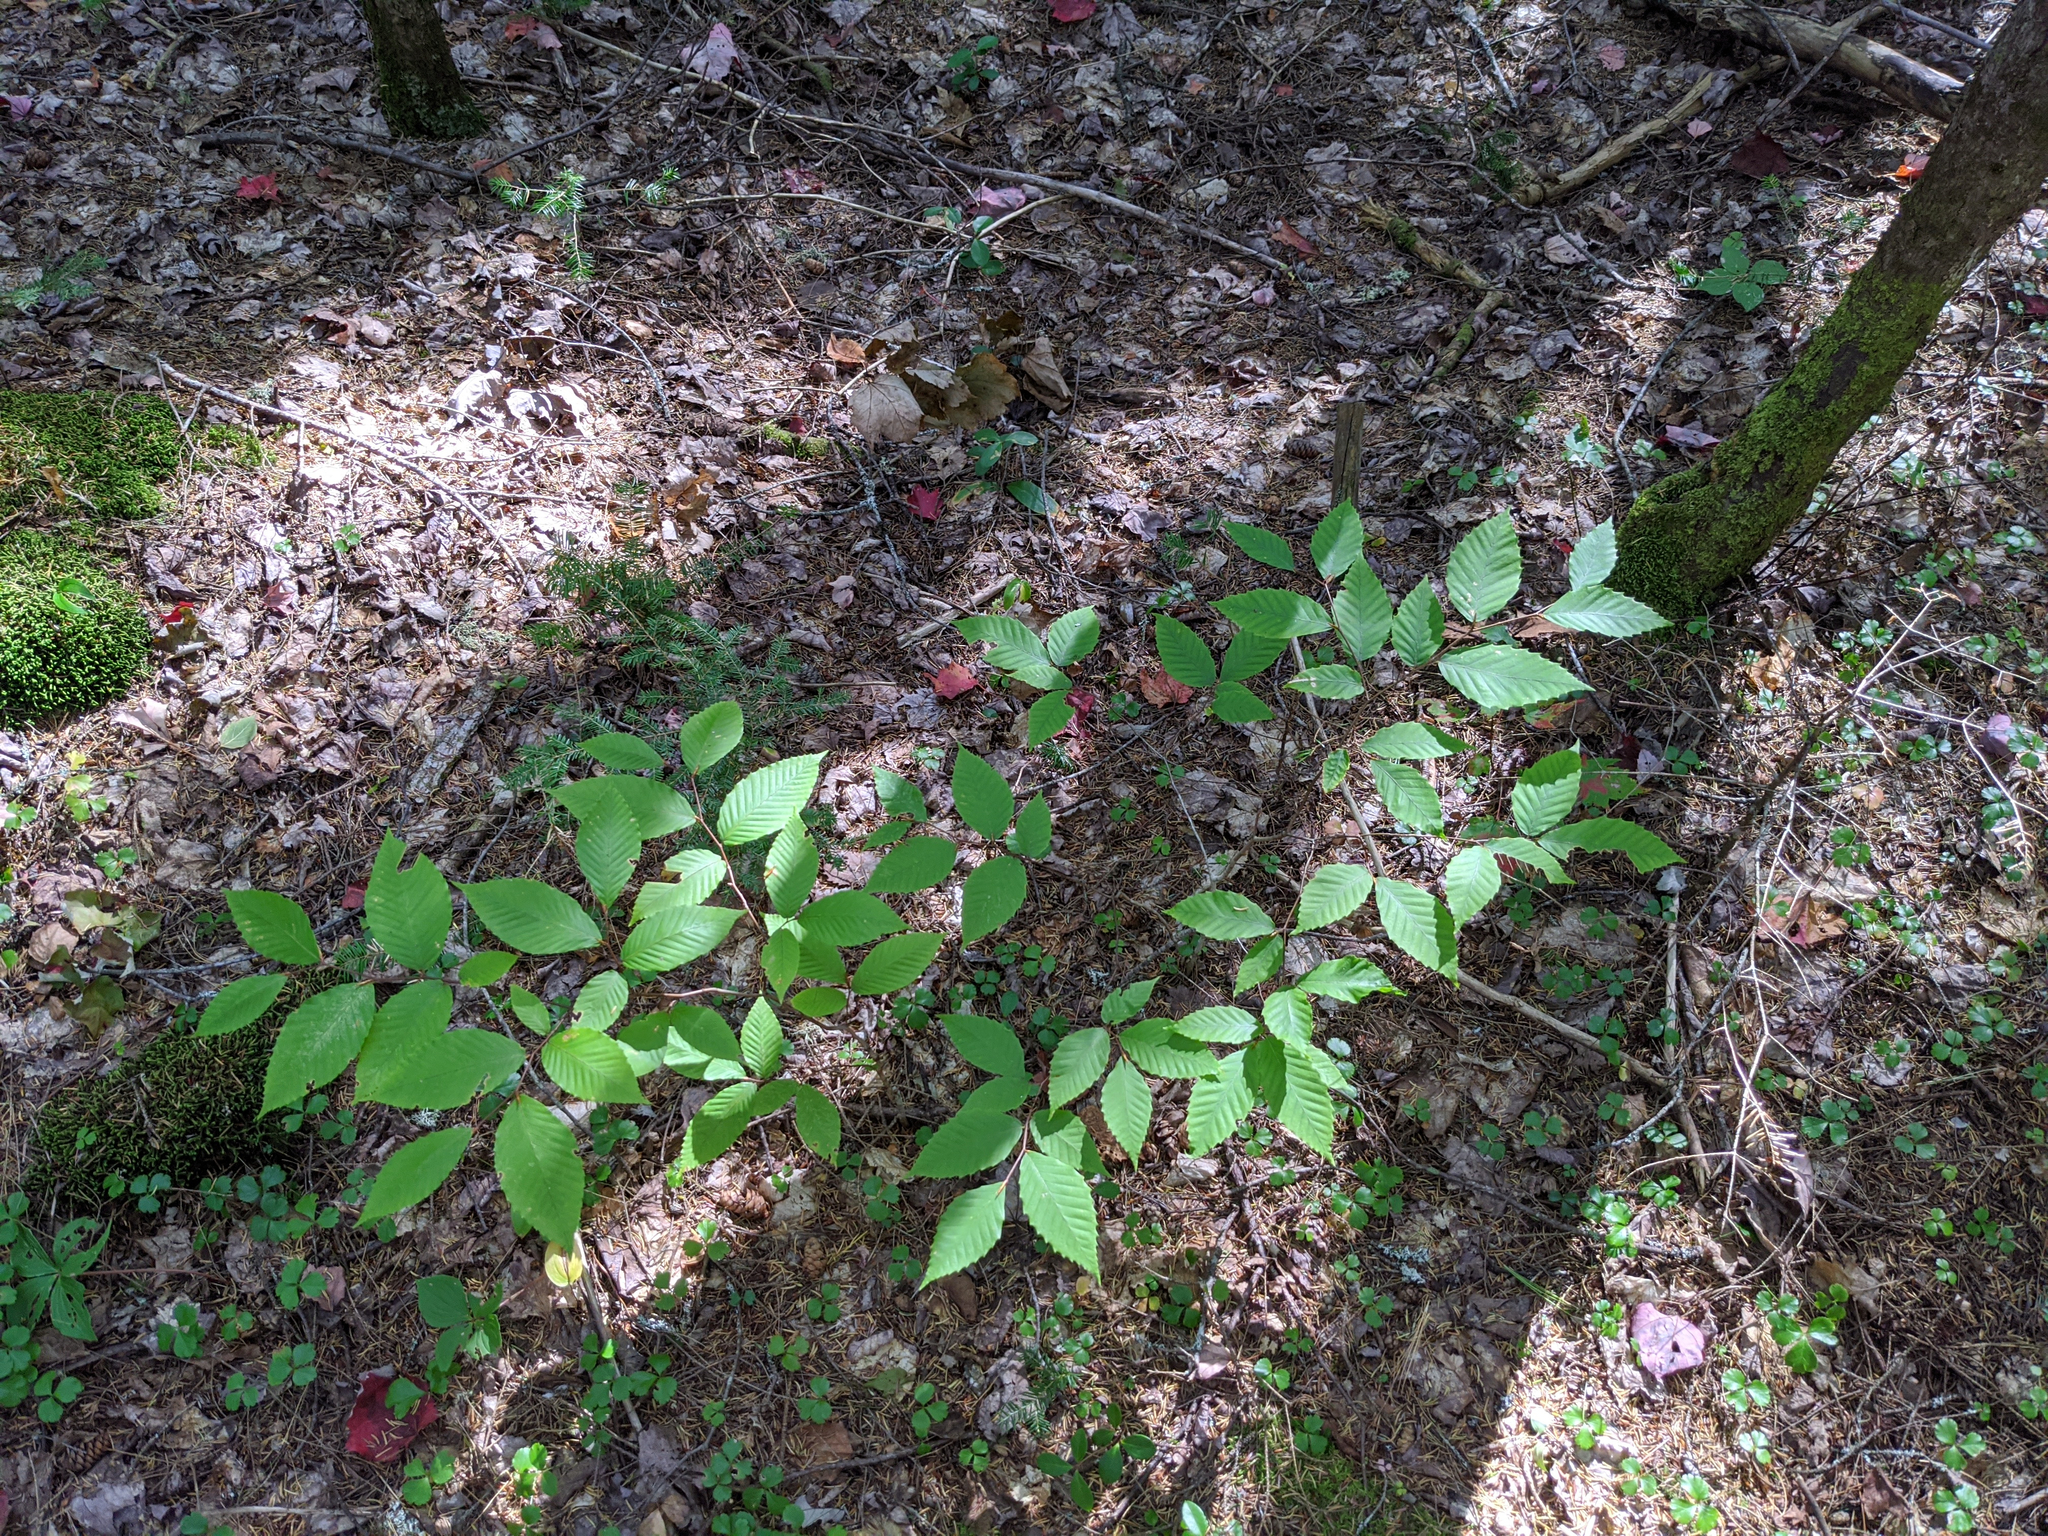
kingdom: Plantae
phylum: Tracheophyta
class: Magnoliopsida
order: Fagales
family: Fagaceae
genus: Fagus
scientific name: Fagus grandifolia
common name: American beech
